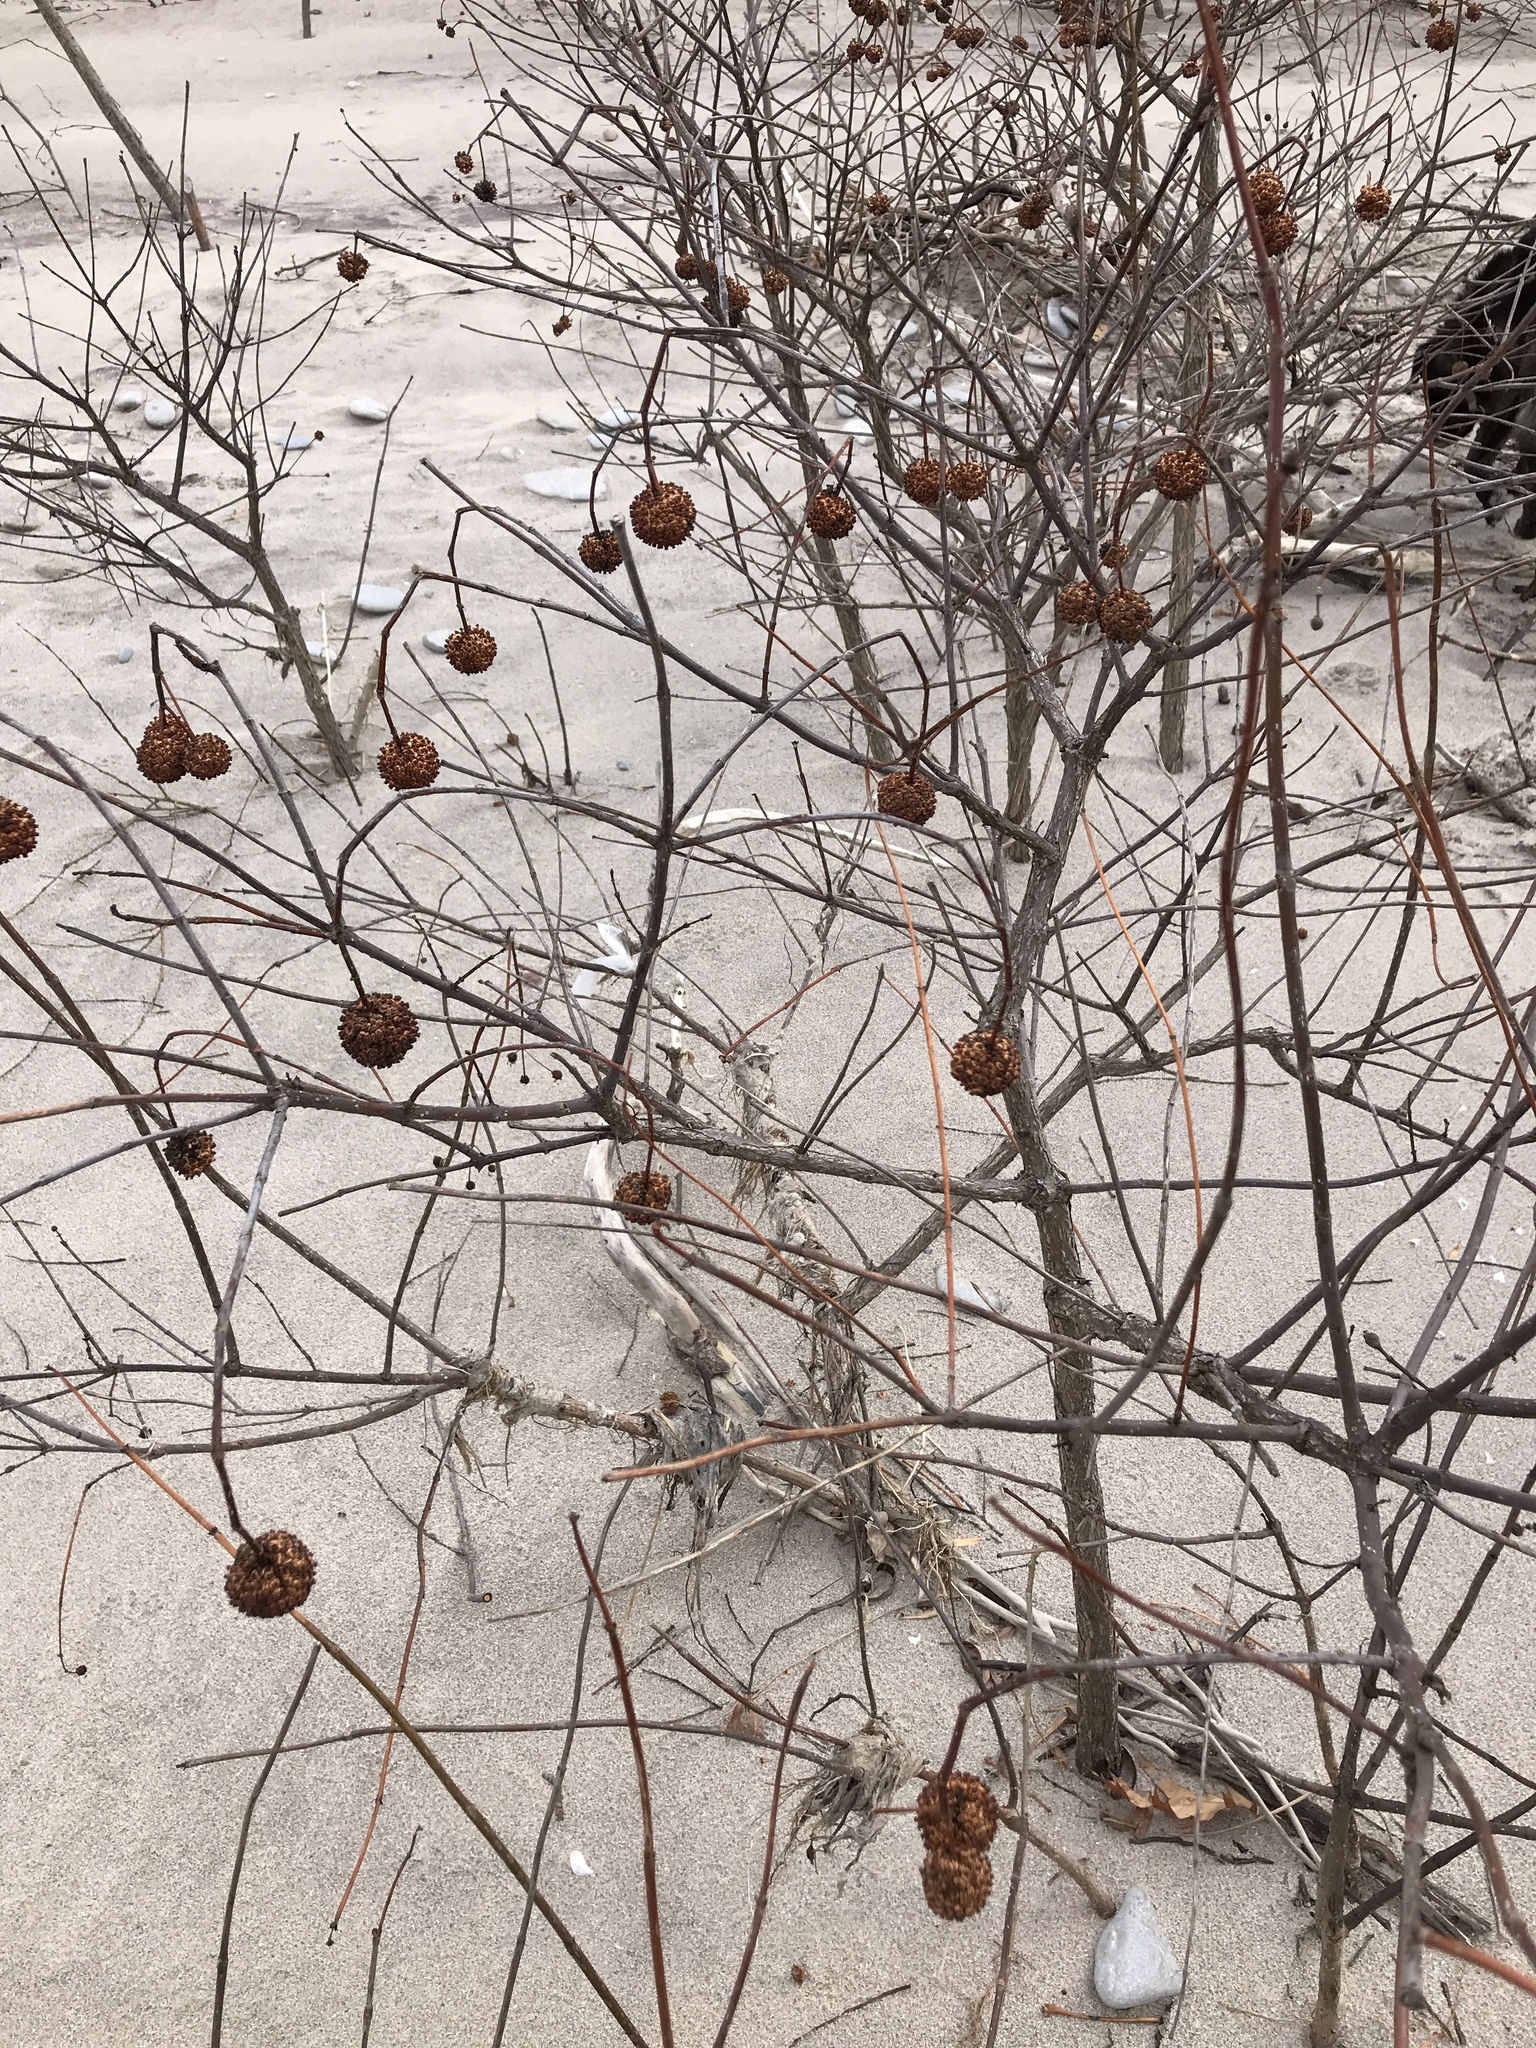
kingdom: Plantae
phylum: Tracheophyta
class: Magnoliopsida
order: Gentianales
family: Rubiaceae
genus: Cephalanthus
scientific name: Cephalanthus occidentalis
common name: Button-willow
